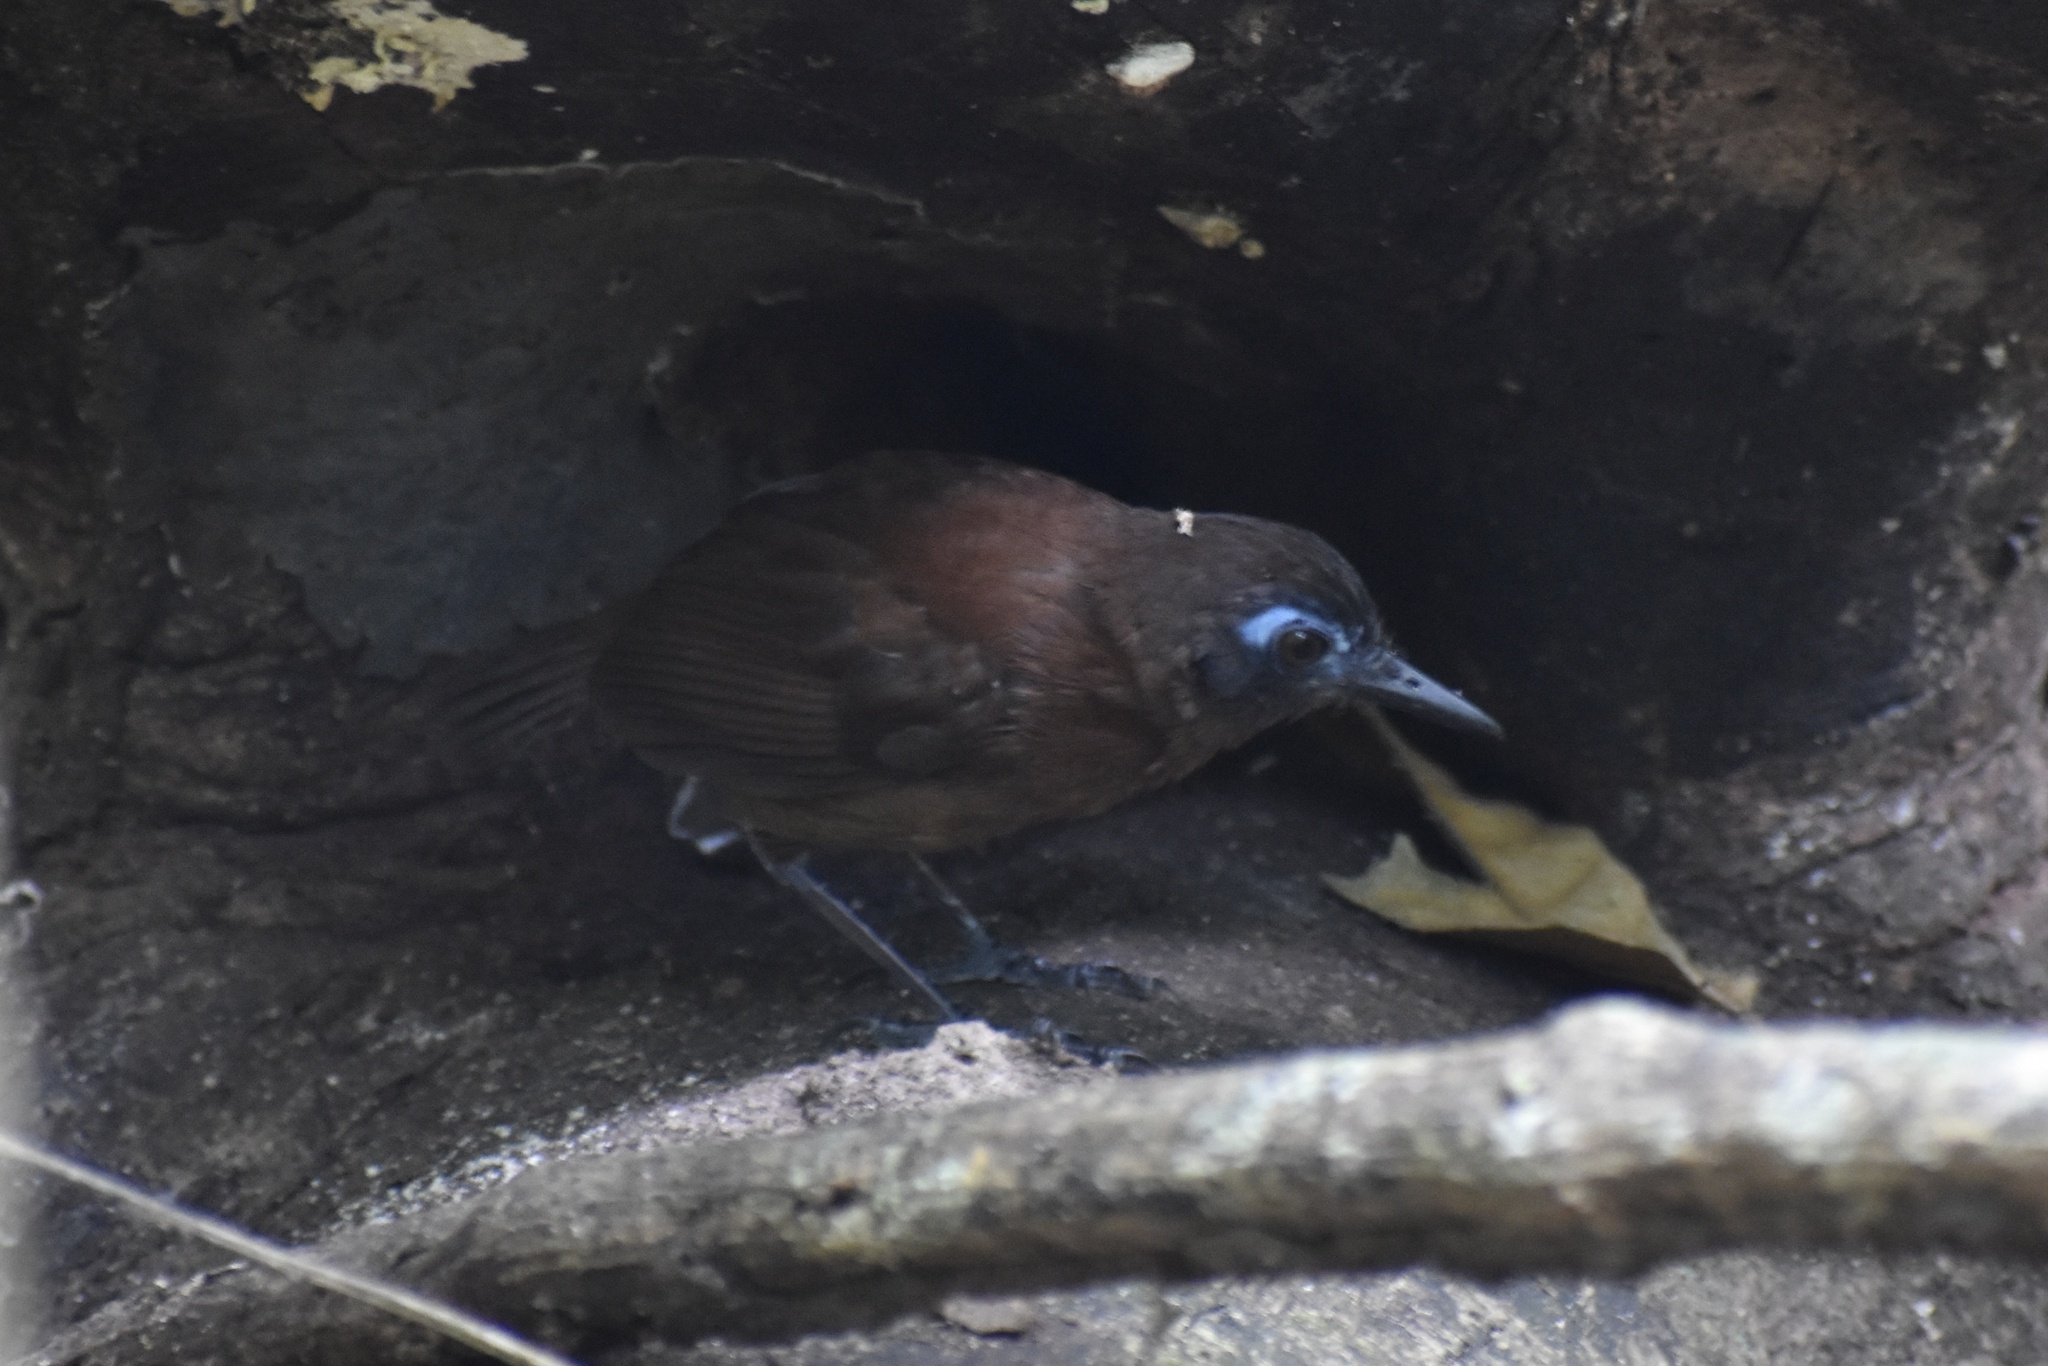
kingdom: Animalia
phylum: Chordata
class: Aves
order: Passeriformes
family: Thamnophilidae
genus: Myrmeciza
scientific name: Myrmeciza exsul
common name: Chestnut-backed antbird
